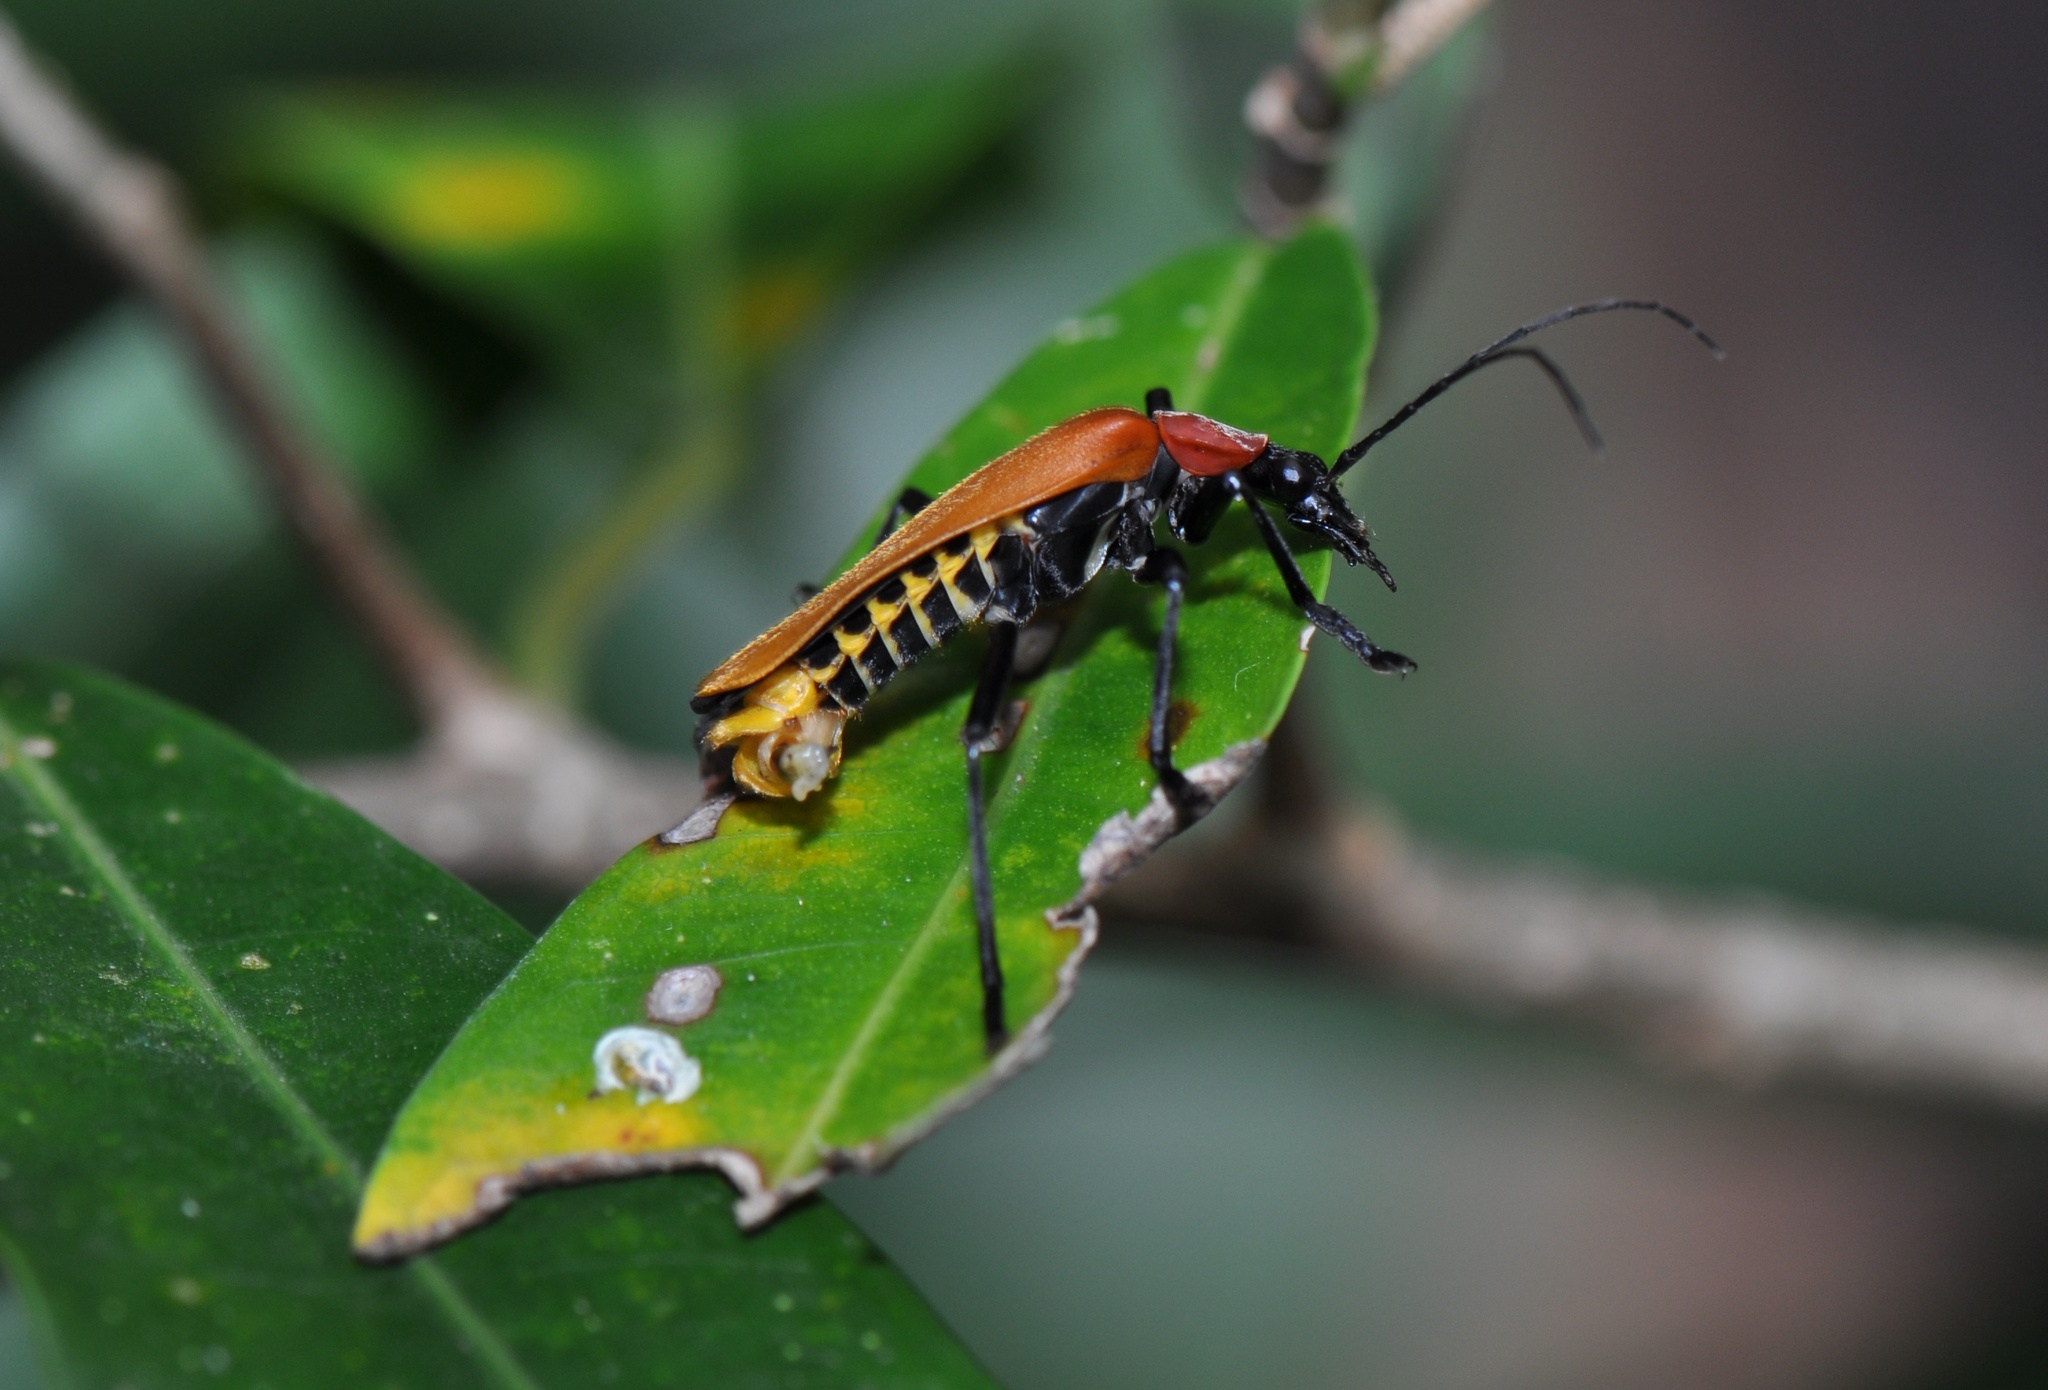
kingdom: Animalia
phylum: Arthropoda
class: Insecta
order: Coleoptera
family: Cantharidae
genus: Chauliognathus
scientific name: Chauliognathus
